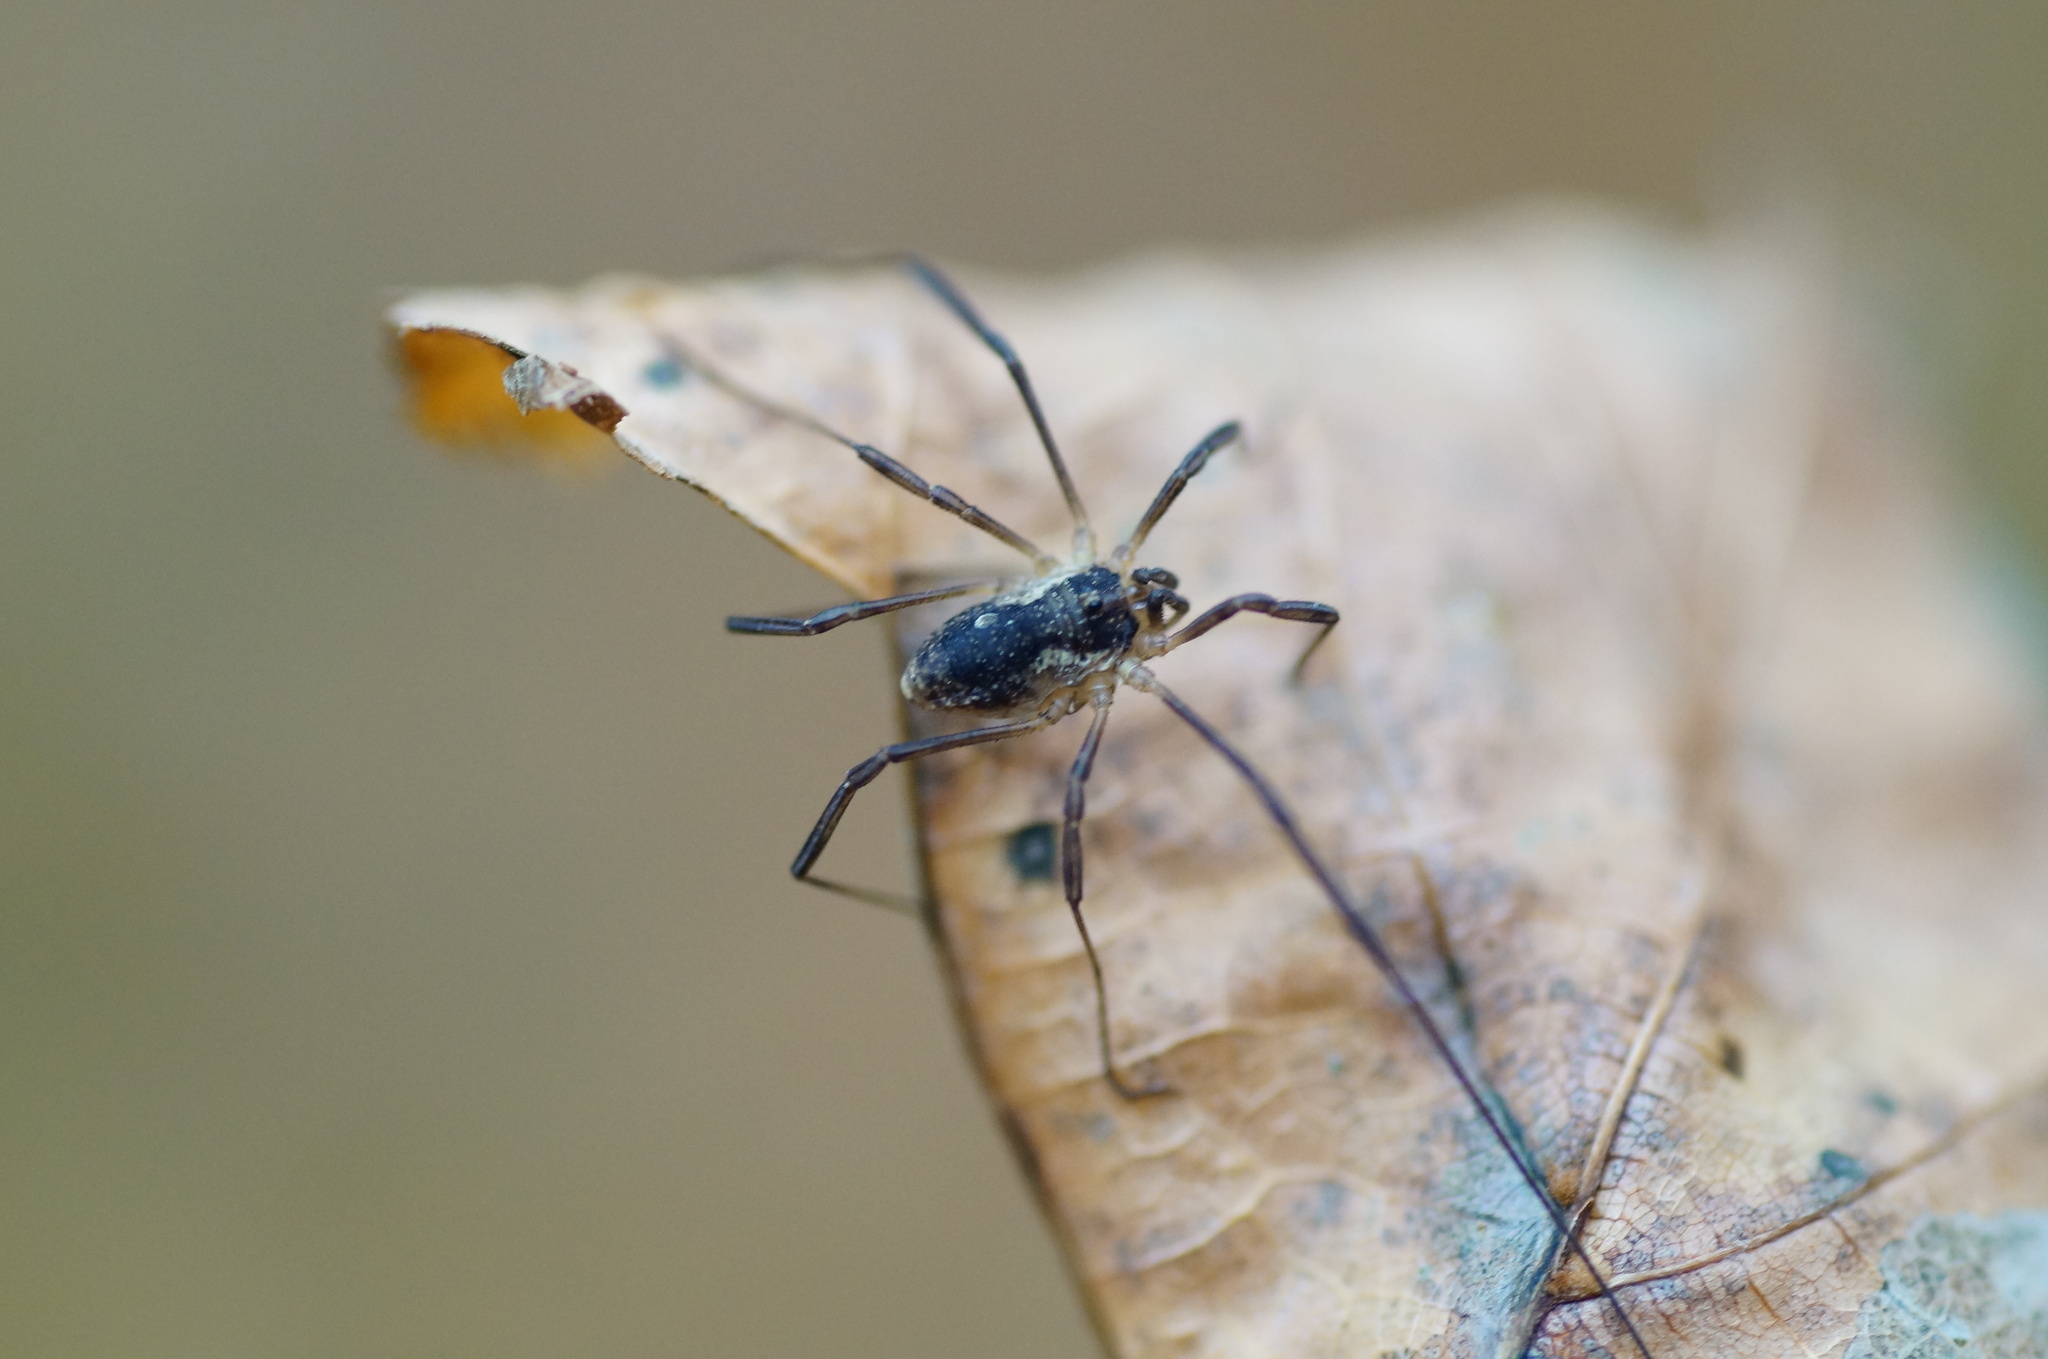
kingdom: Animalia
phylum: Arthropoda
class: Arachnida
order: Opiliones
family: Phalangiidae
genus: Oligolophus
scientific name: Oligolophus tridens
